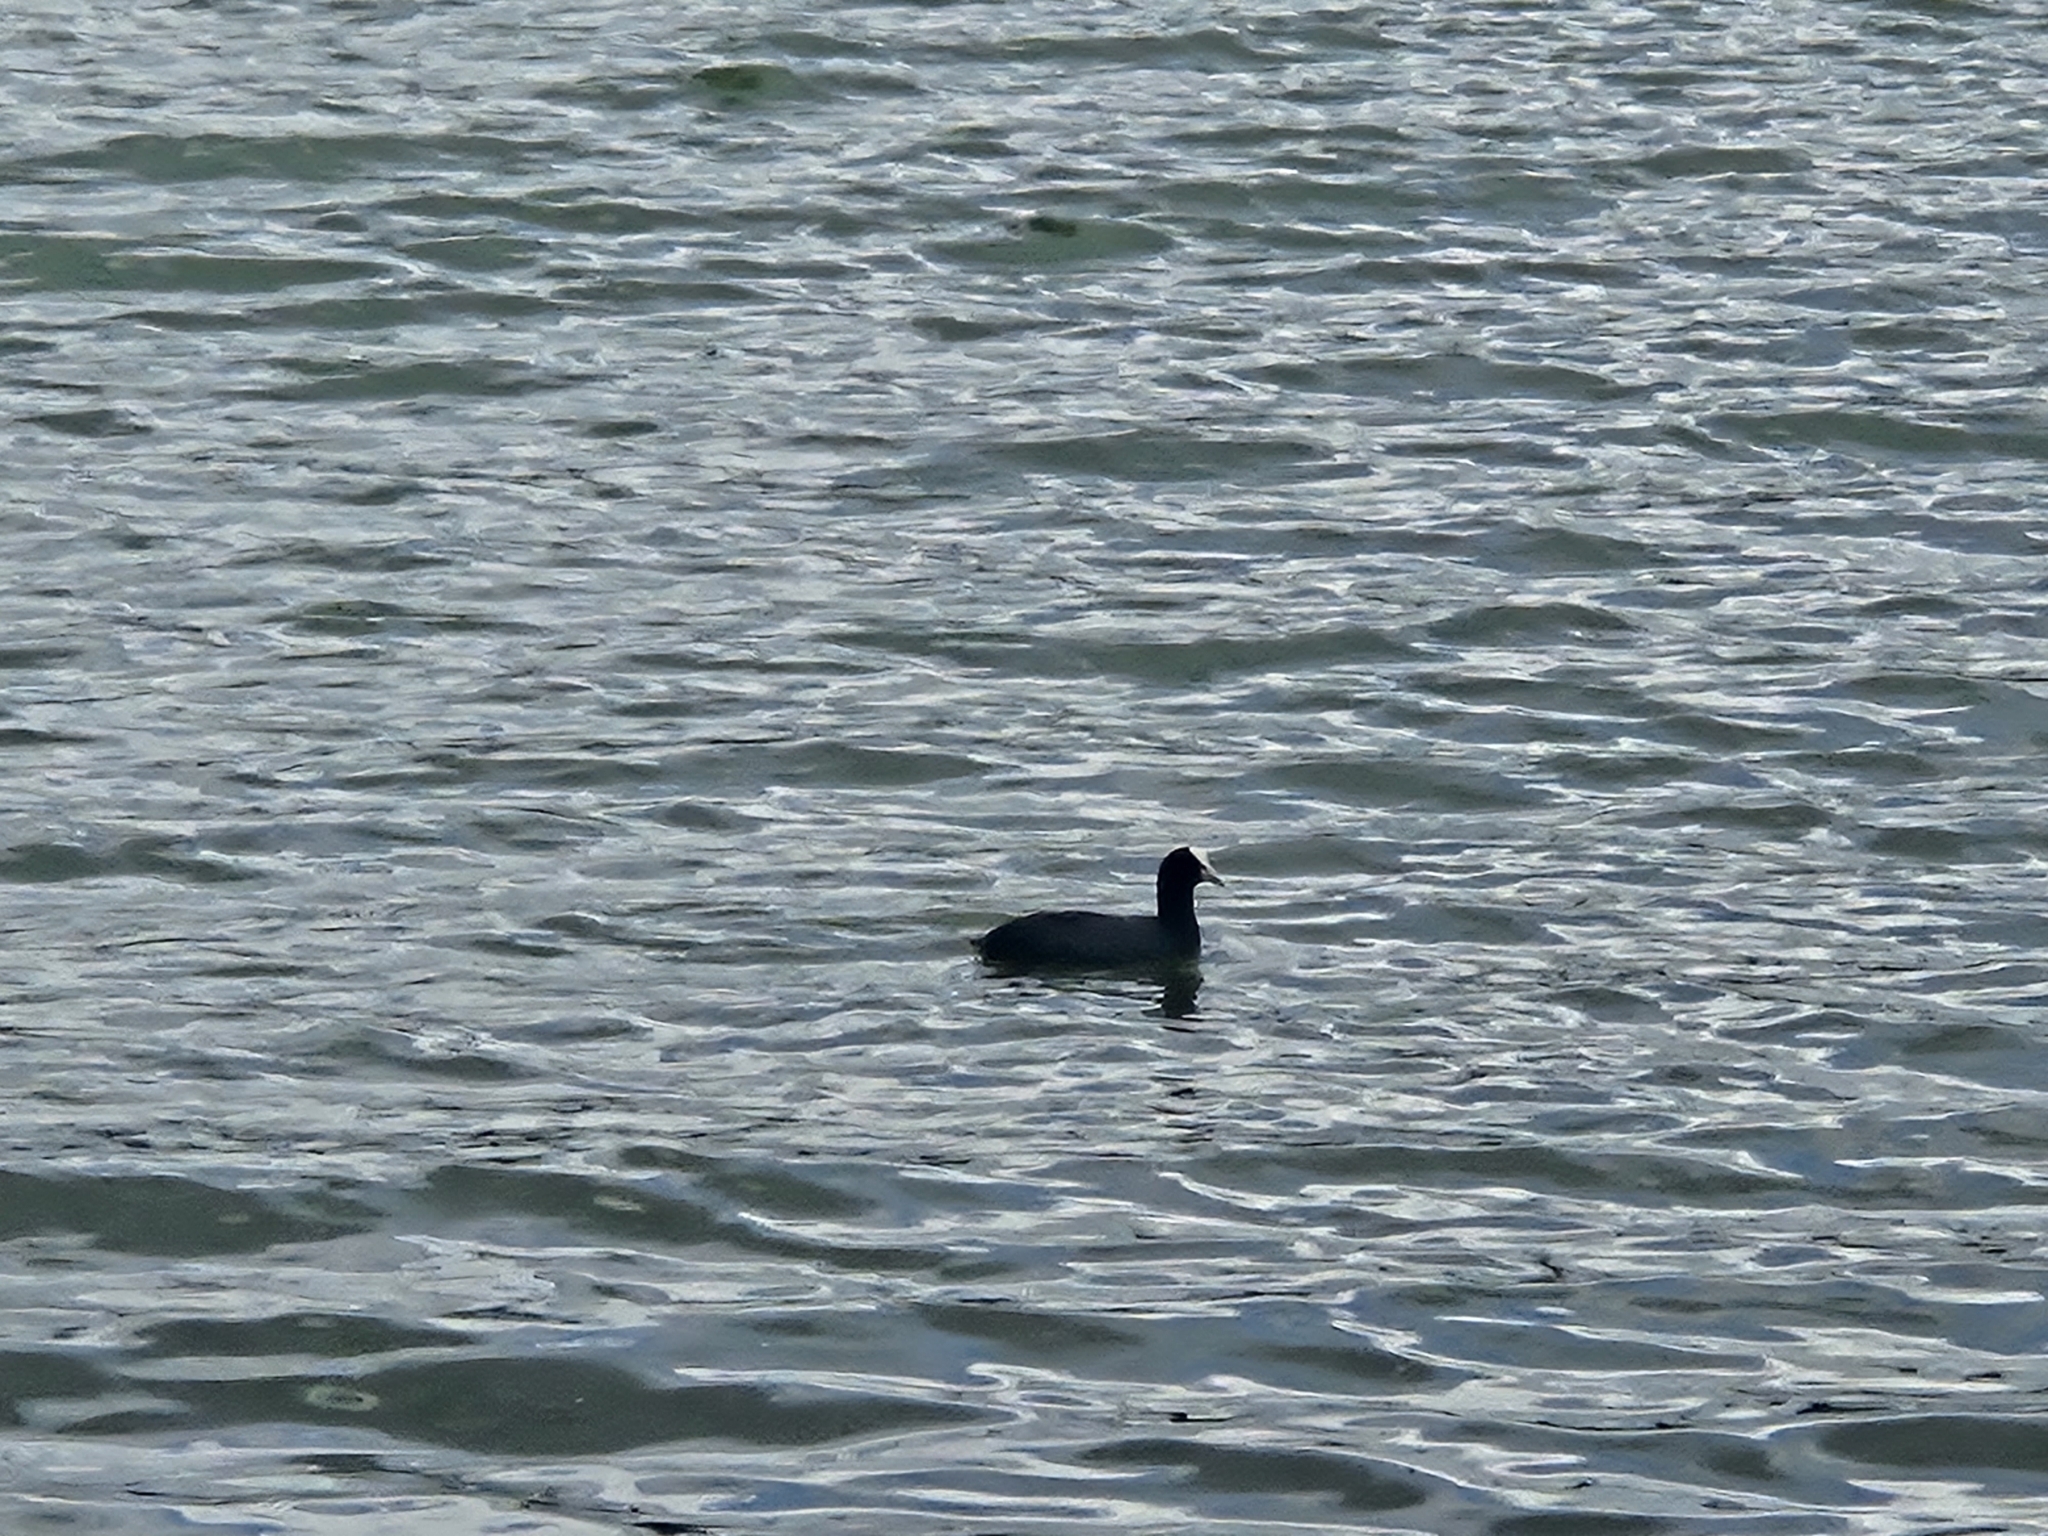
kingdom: Animalia
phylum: Chordata
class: Aves
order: Gruiformes
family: Rallidae
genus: Fulica
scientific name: Fulica atra
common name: Eurasian coot
